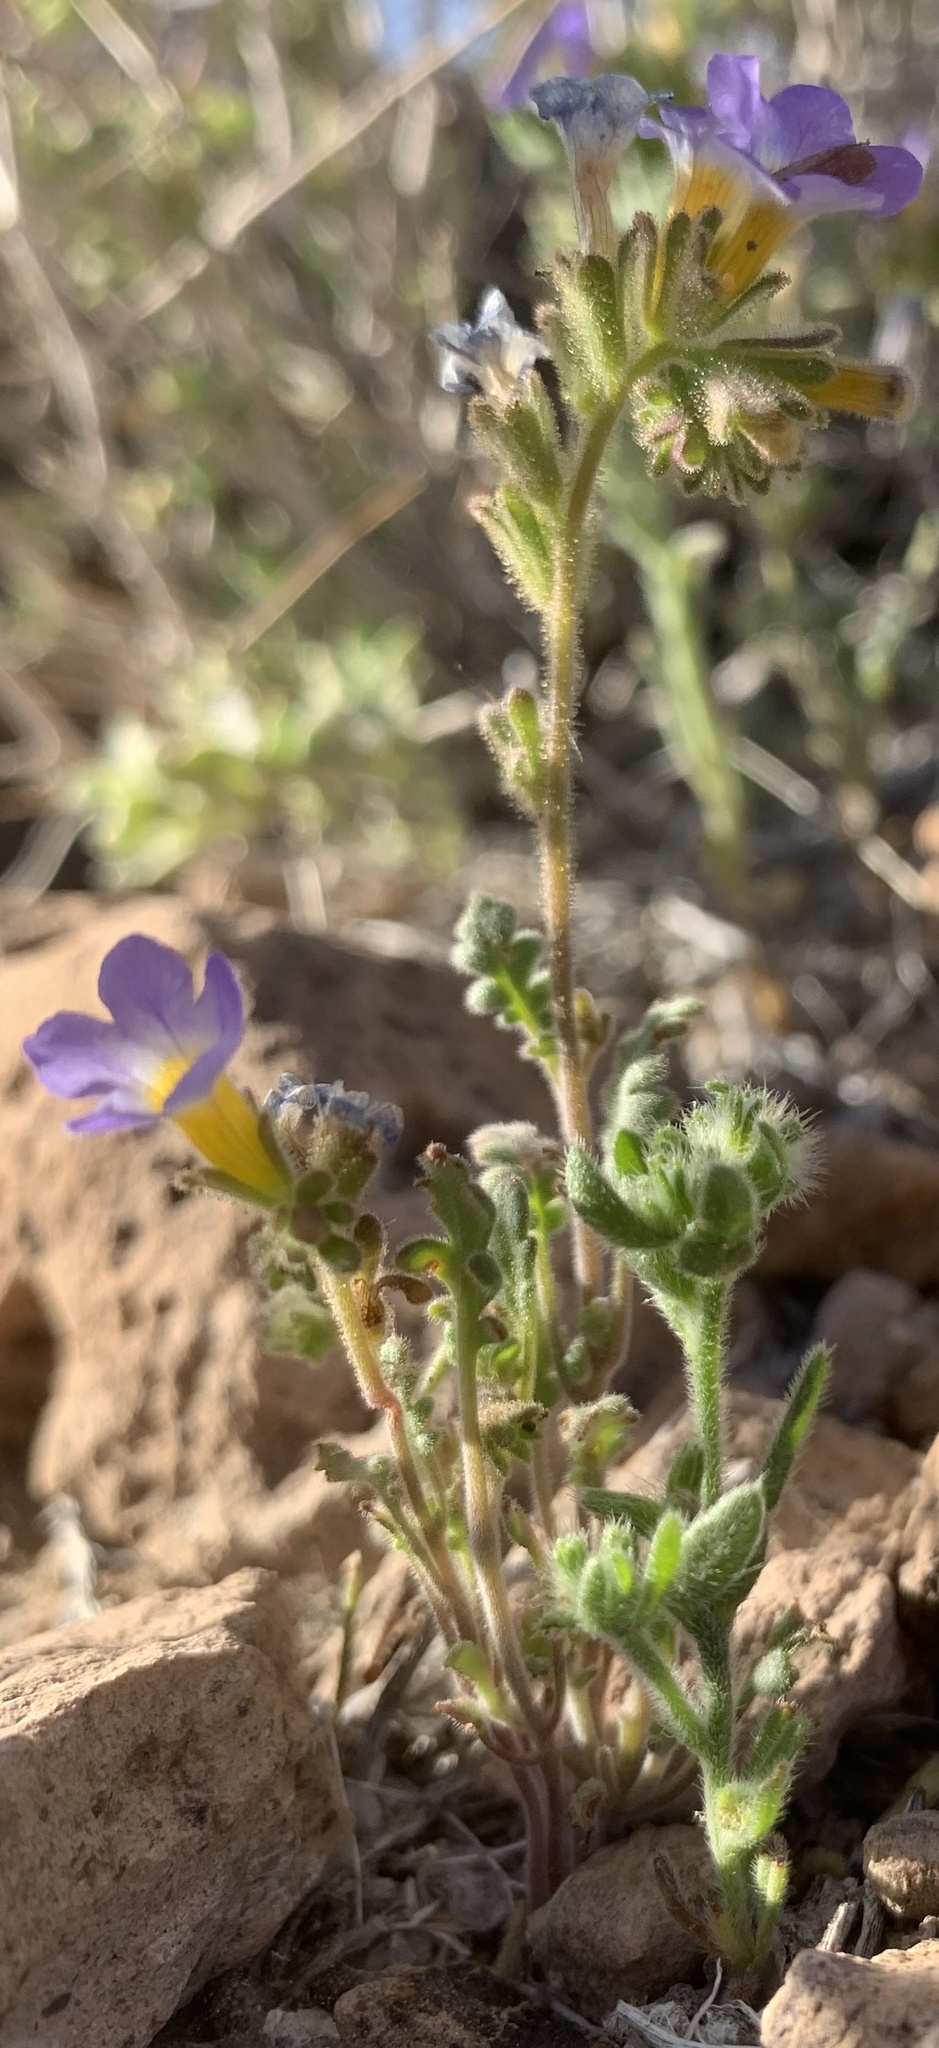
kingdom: Plantae
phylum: Tracheophyta
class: Magnoliopsida
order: Boraginales
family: Hydrophyllaceae
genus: Phacelia
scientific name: Phacelia fremontii
